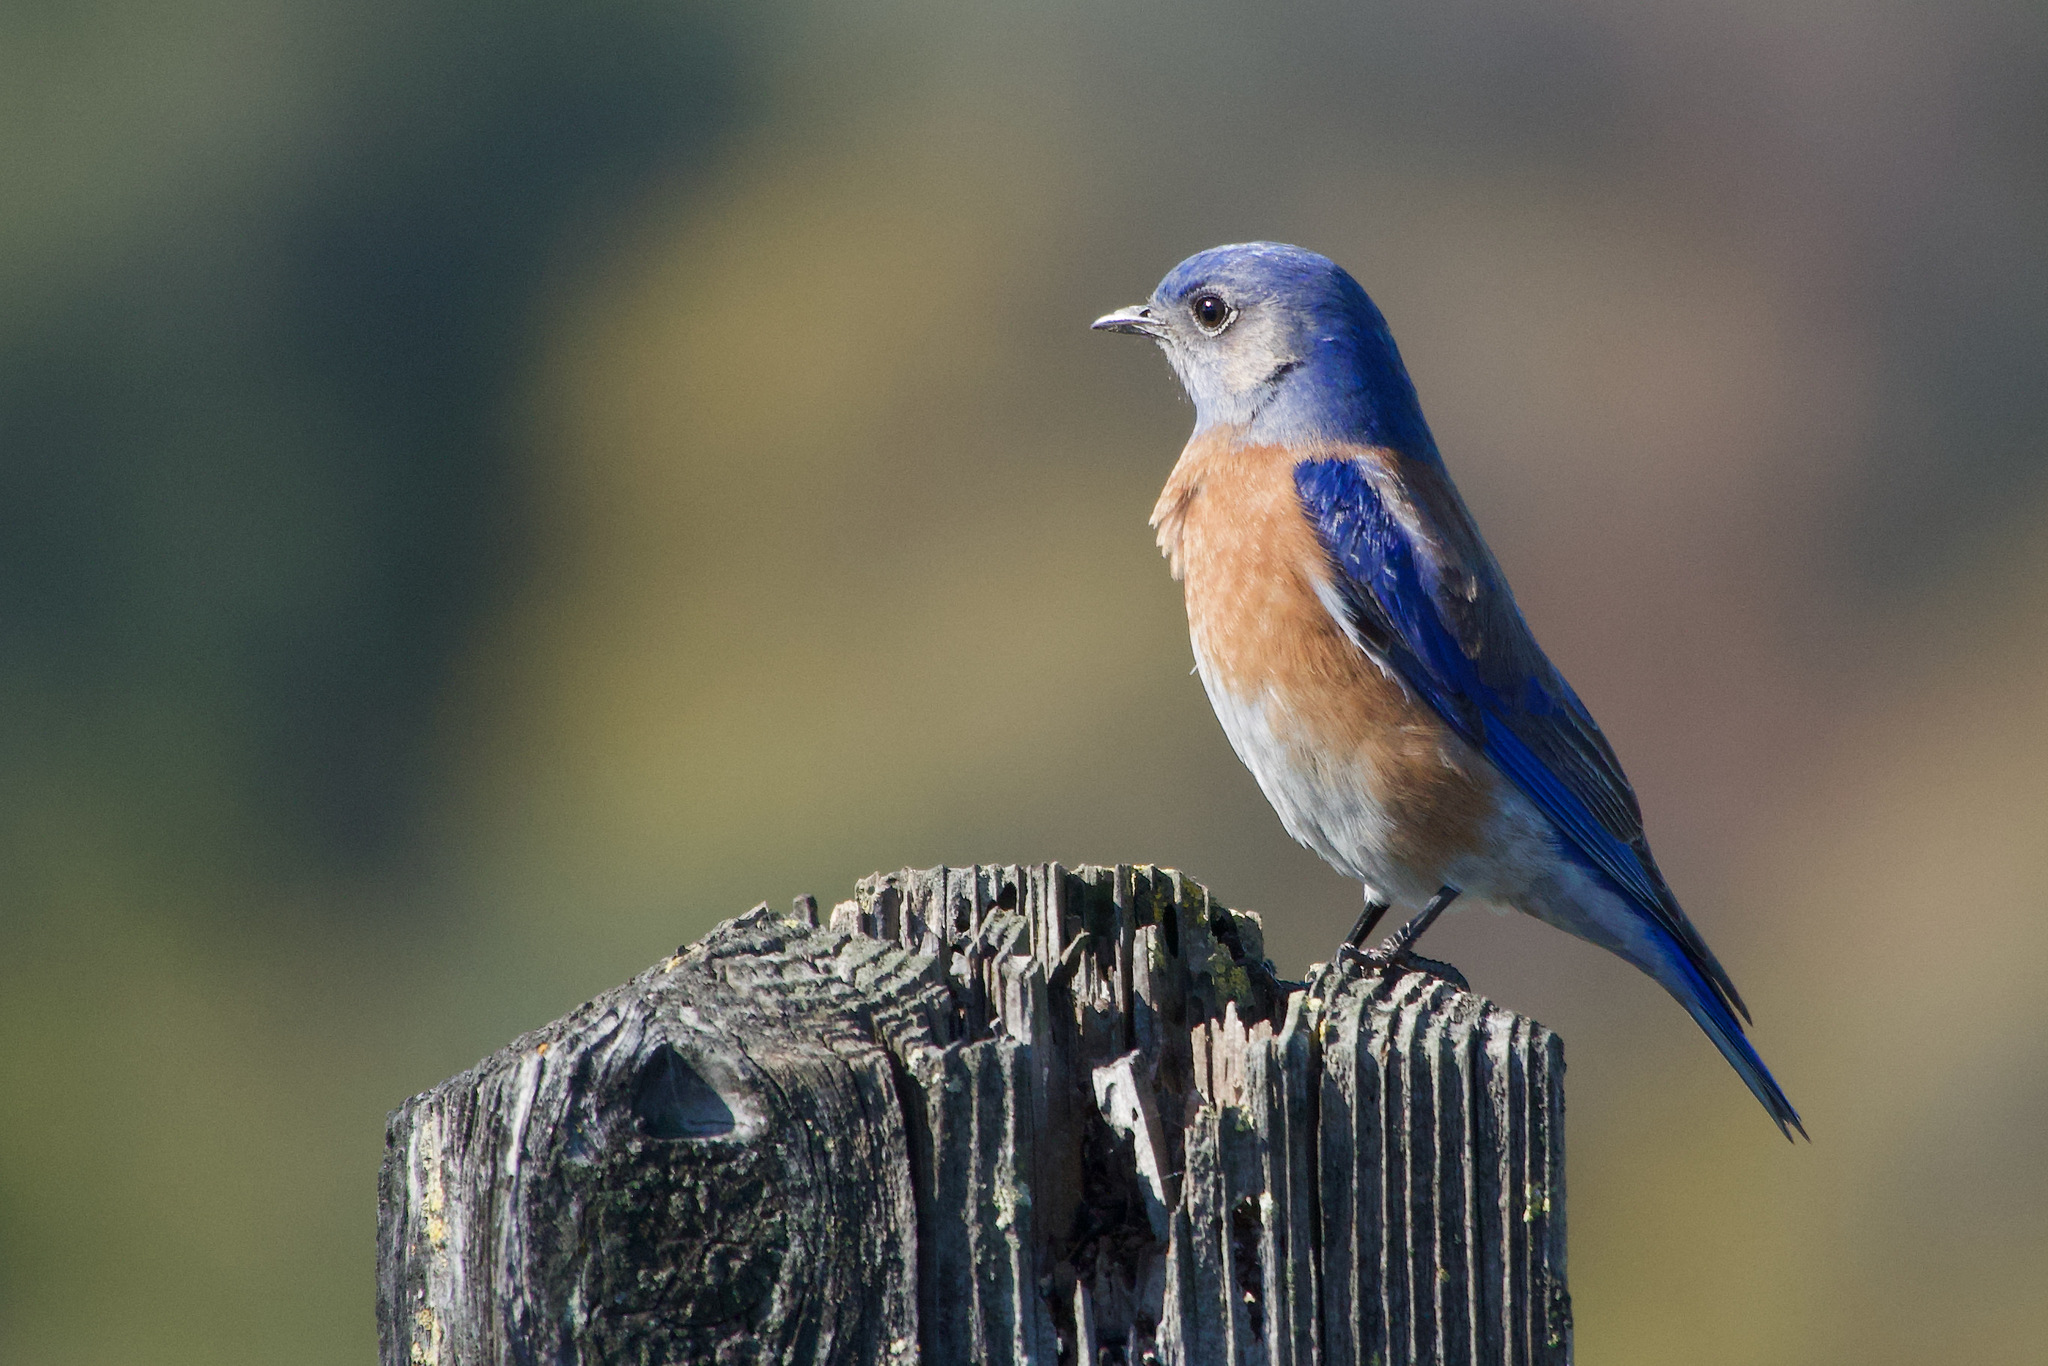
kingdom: Animalia
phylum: Chordata
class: Aves
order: Passeriformes
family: Turdidae
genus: Sialia
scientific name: Sialia mexicana
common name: Western bluebird
